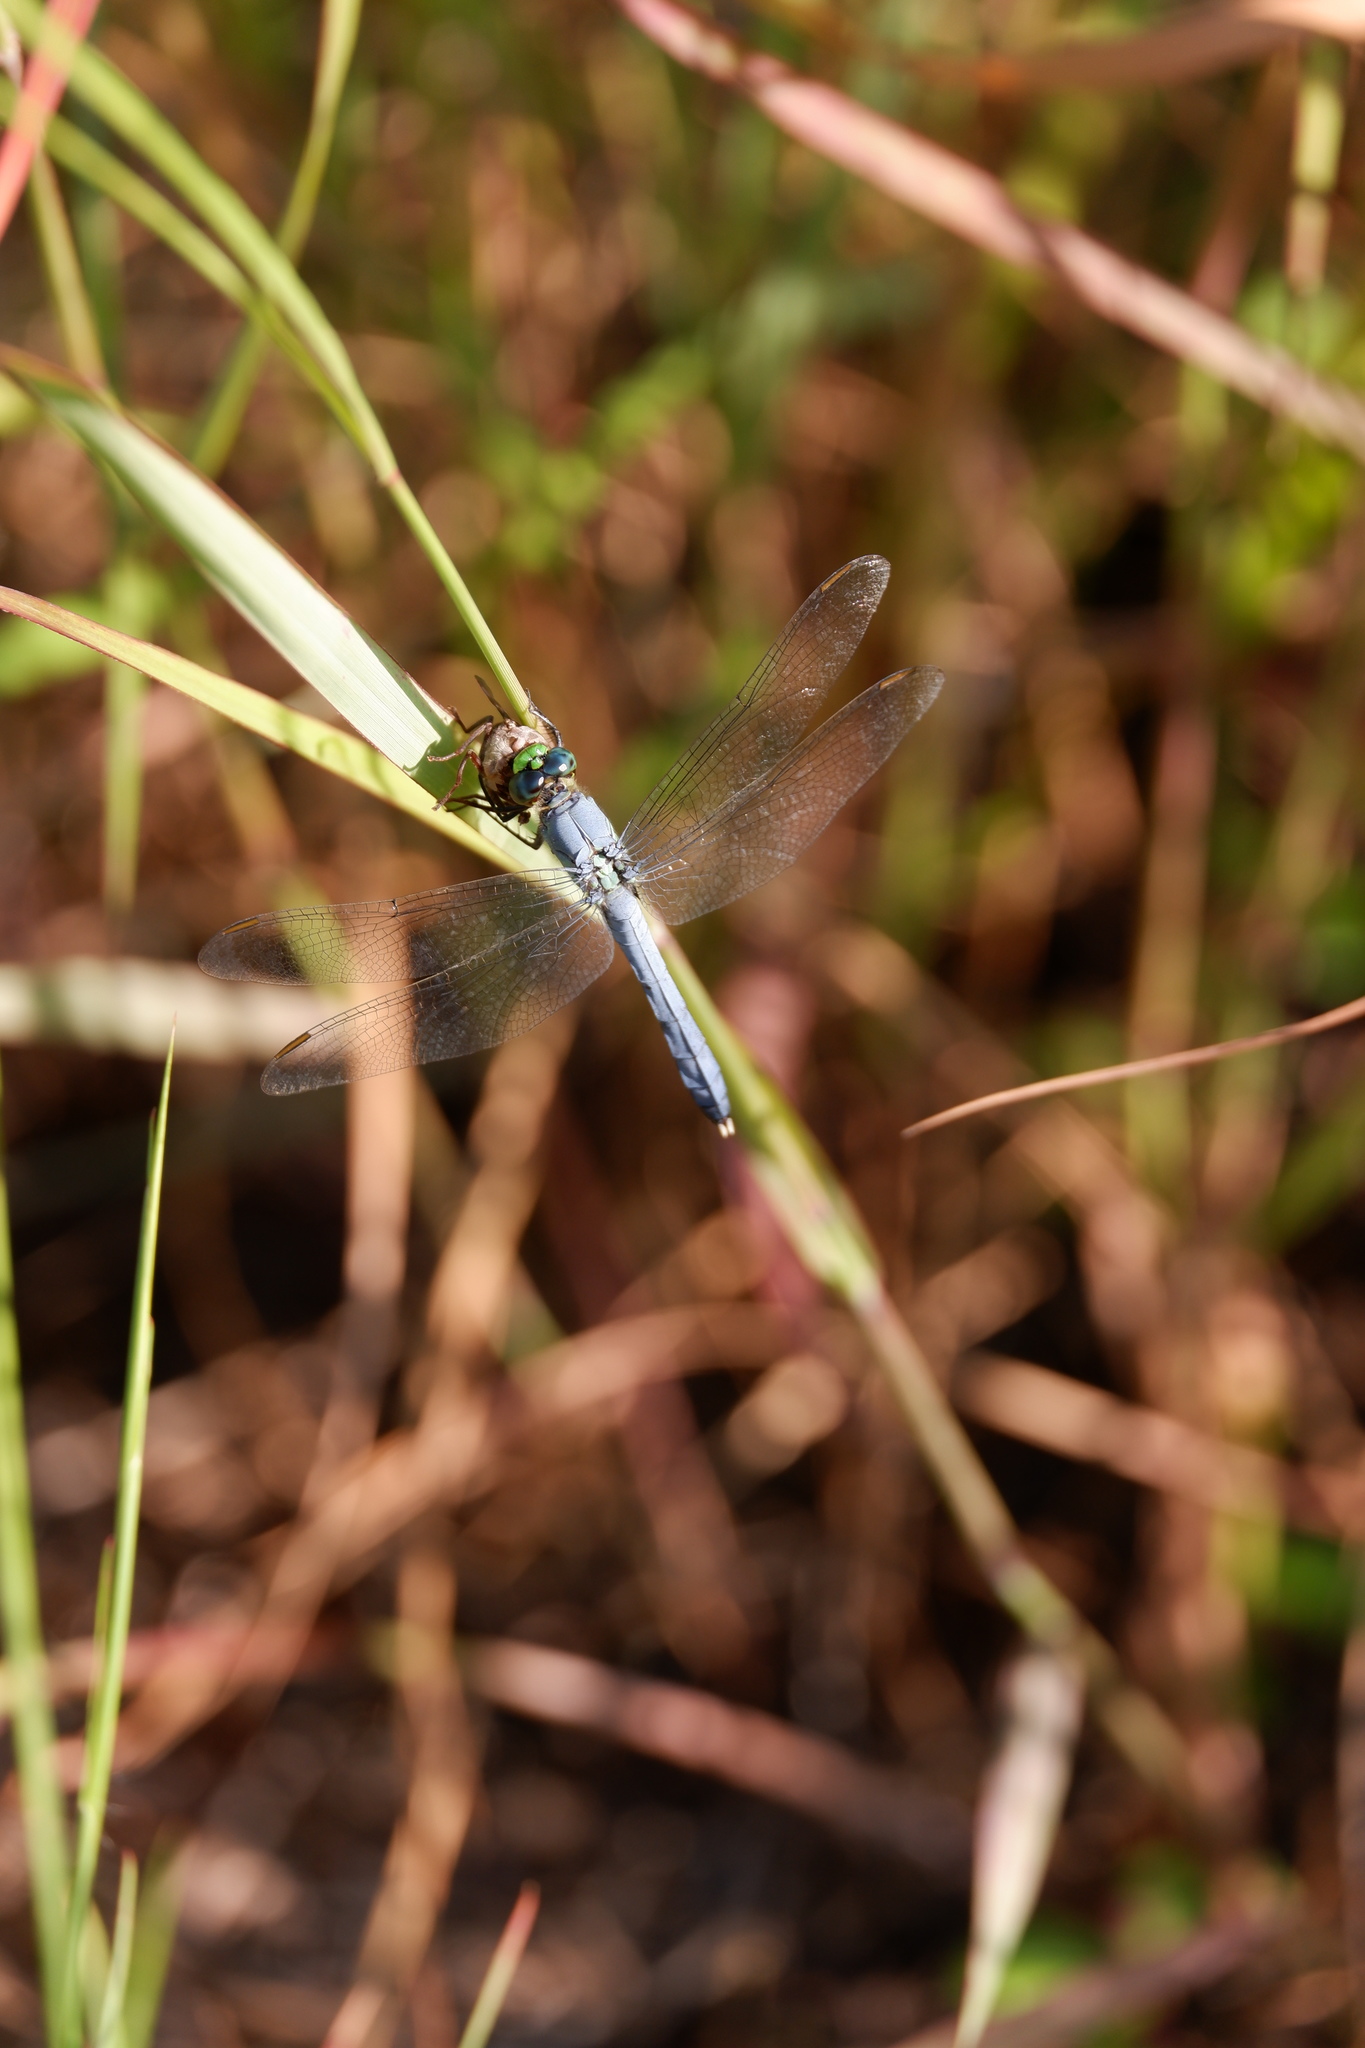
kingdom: Animalia
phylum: Arthropoda
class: Insecta
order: Odonata
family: Libellulidae
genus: Pachydiplax
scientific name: Pachydiplax longipennis
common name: Blue dasher
